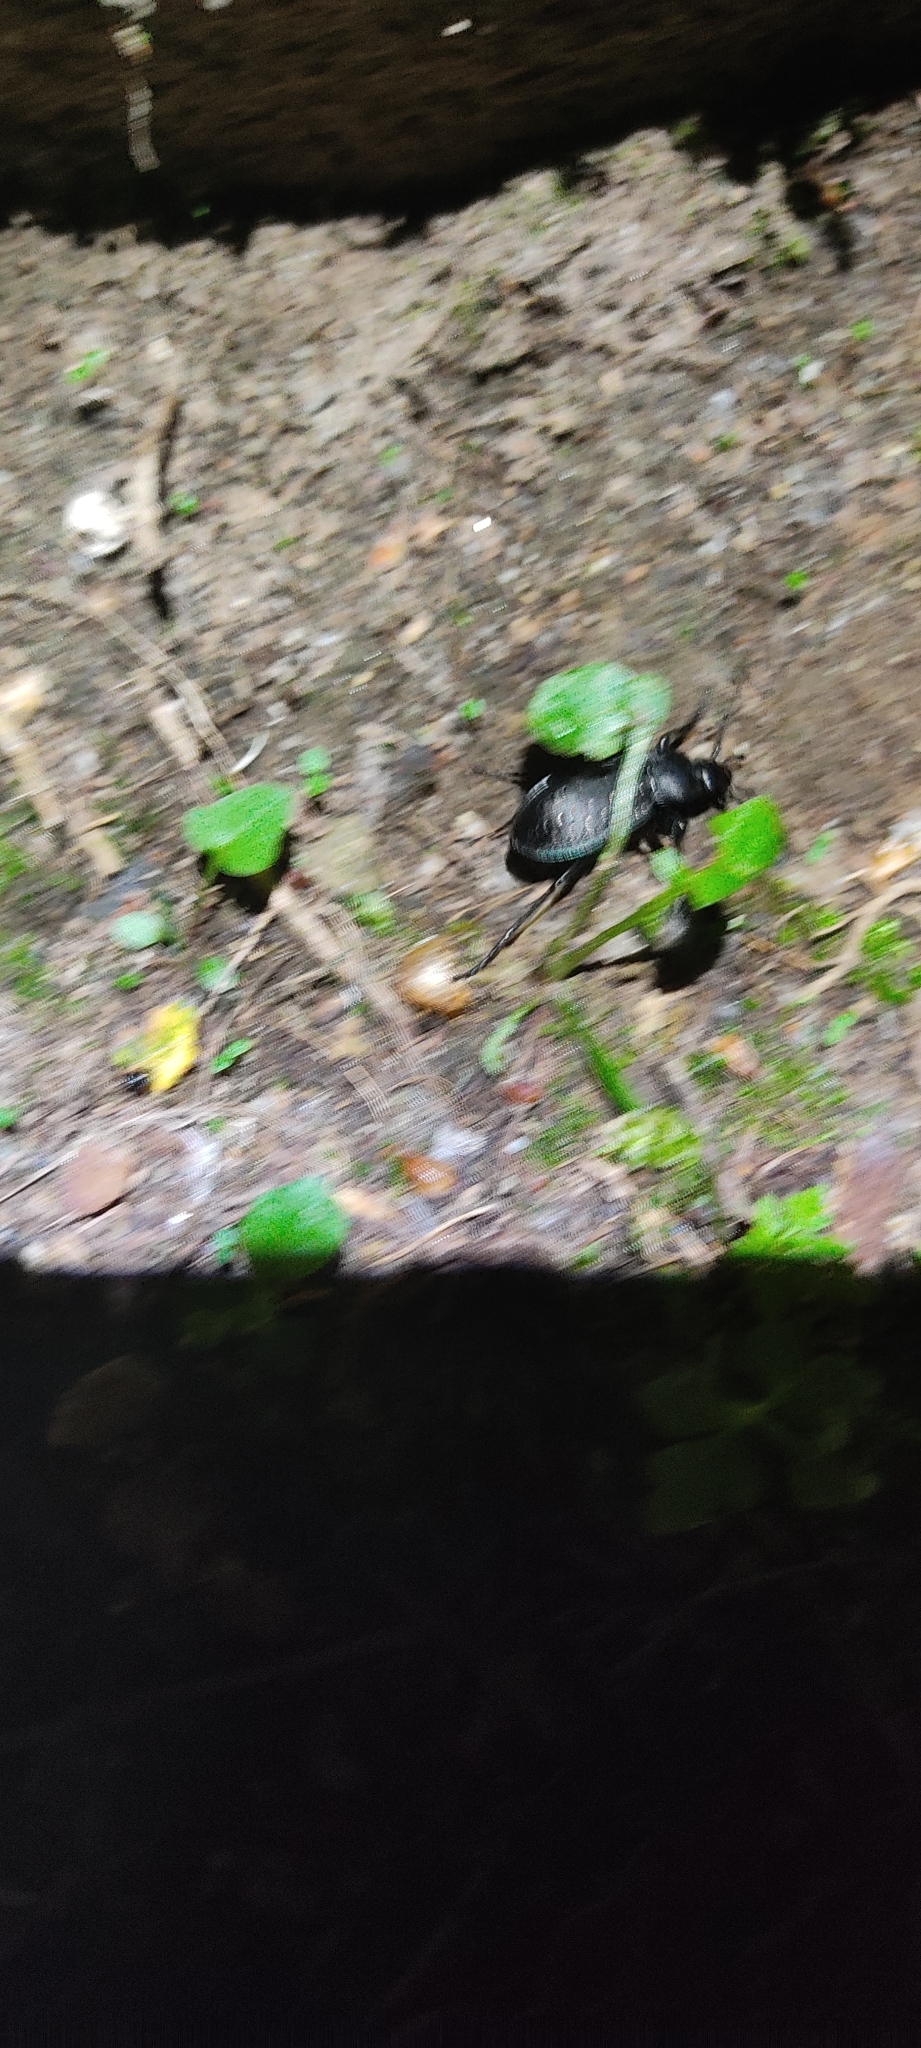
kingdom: Animalia
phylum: Arthropoda
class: Insecta
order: Coleoptera
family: Carabidae
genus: Carabus
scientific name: Carabus
